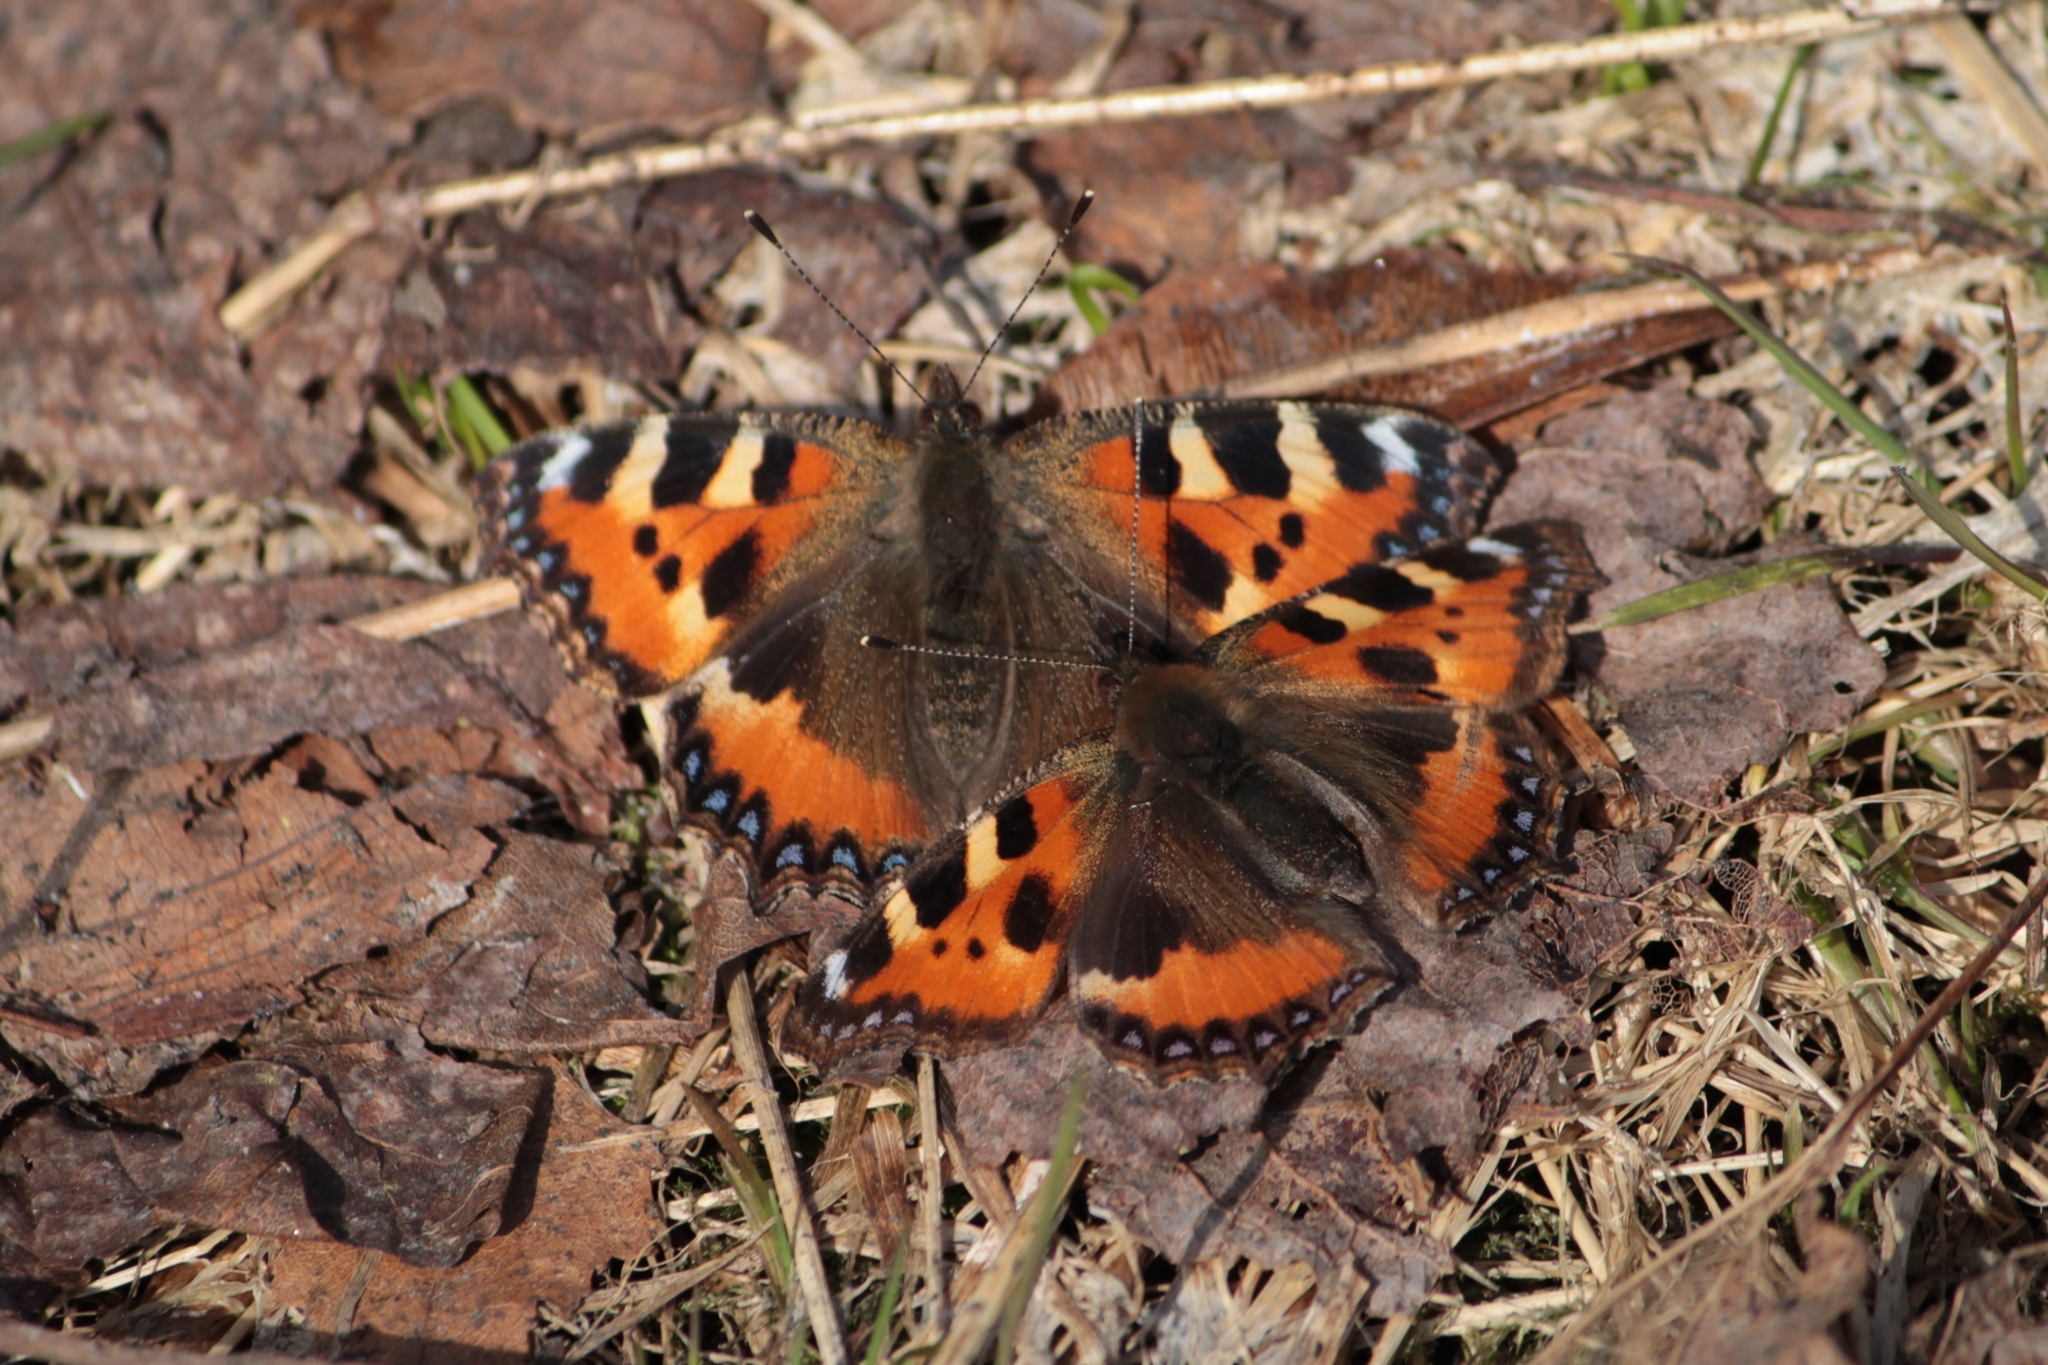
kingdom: Animalia
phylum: Arthropoda
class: Insecta
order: Lepidoptera
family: Nymphalidae
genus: Aglais
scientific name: Aglais urticae
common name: Small tortoiseshell
